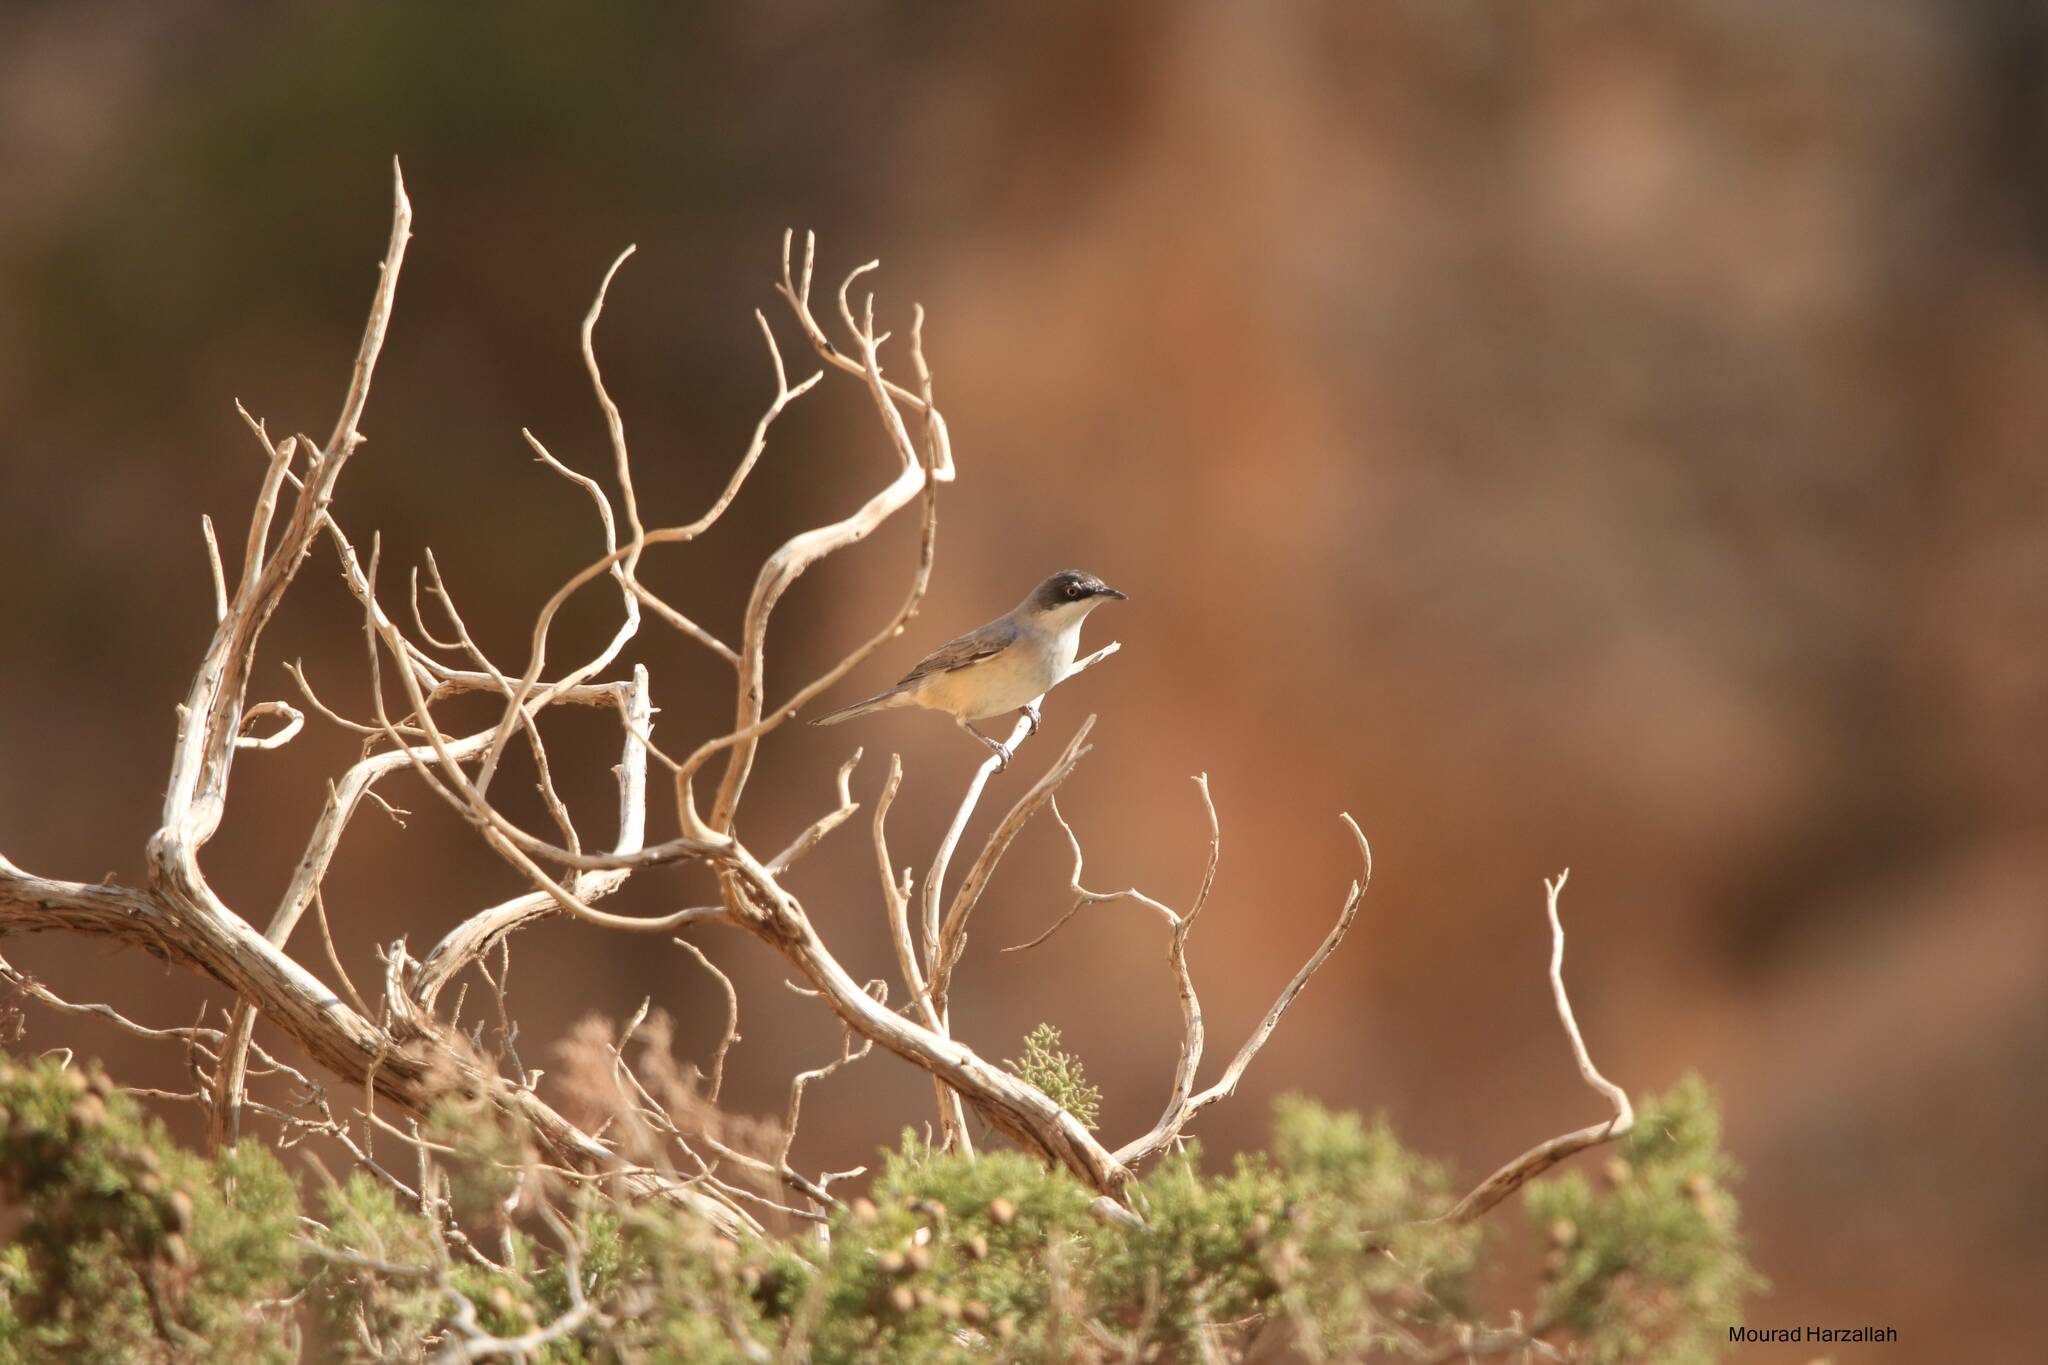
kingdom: Animalia
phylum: Chordata
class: Aves
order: Passeriformes
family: Sylviidae
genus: Sylvia
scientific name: Sylvia hortensis
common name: Orphean warbler
